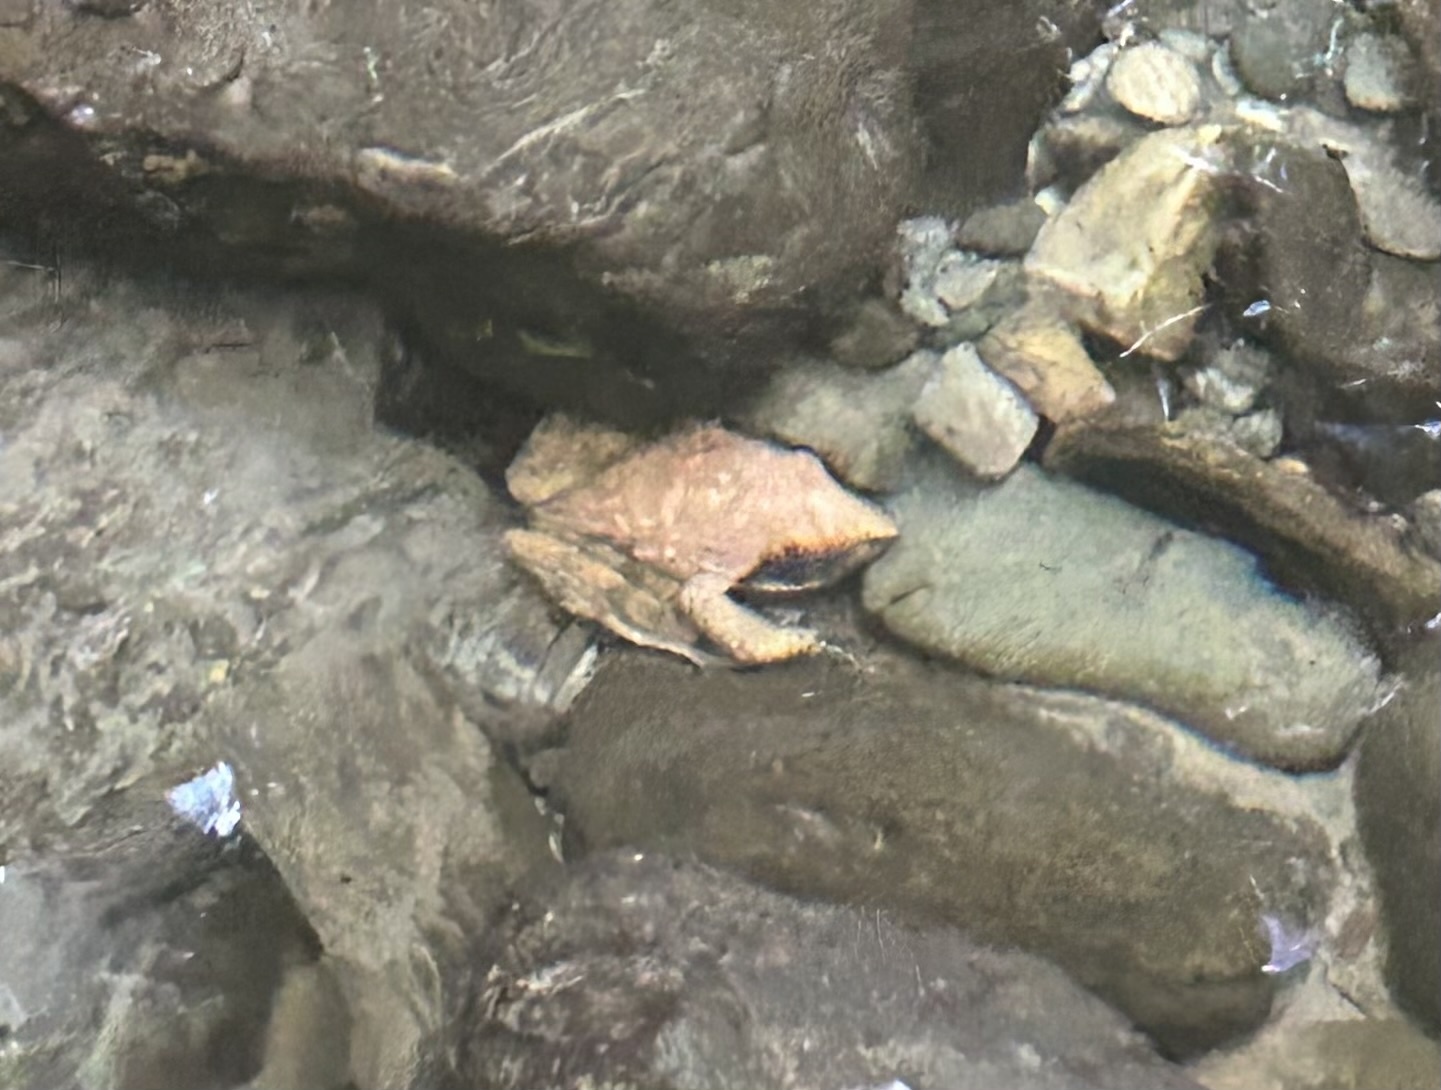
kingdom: Animalia
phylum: Chordata
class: Amphibia
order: Anura
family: Ranidae
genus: Rana
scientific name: Rana italica
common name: Italian stream frog
